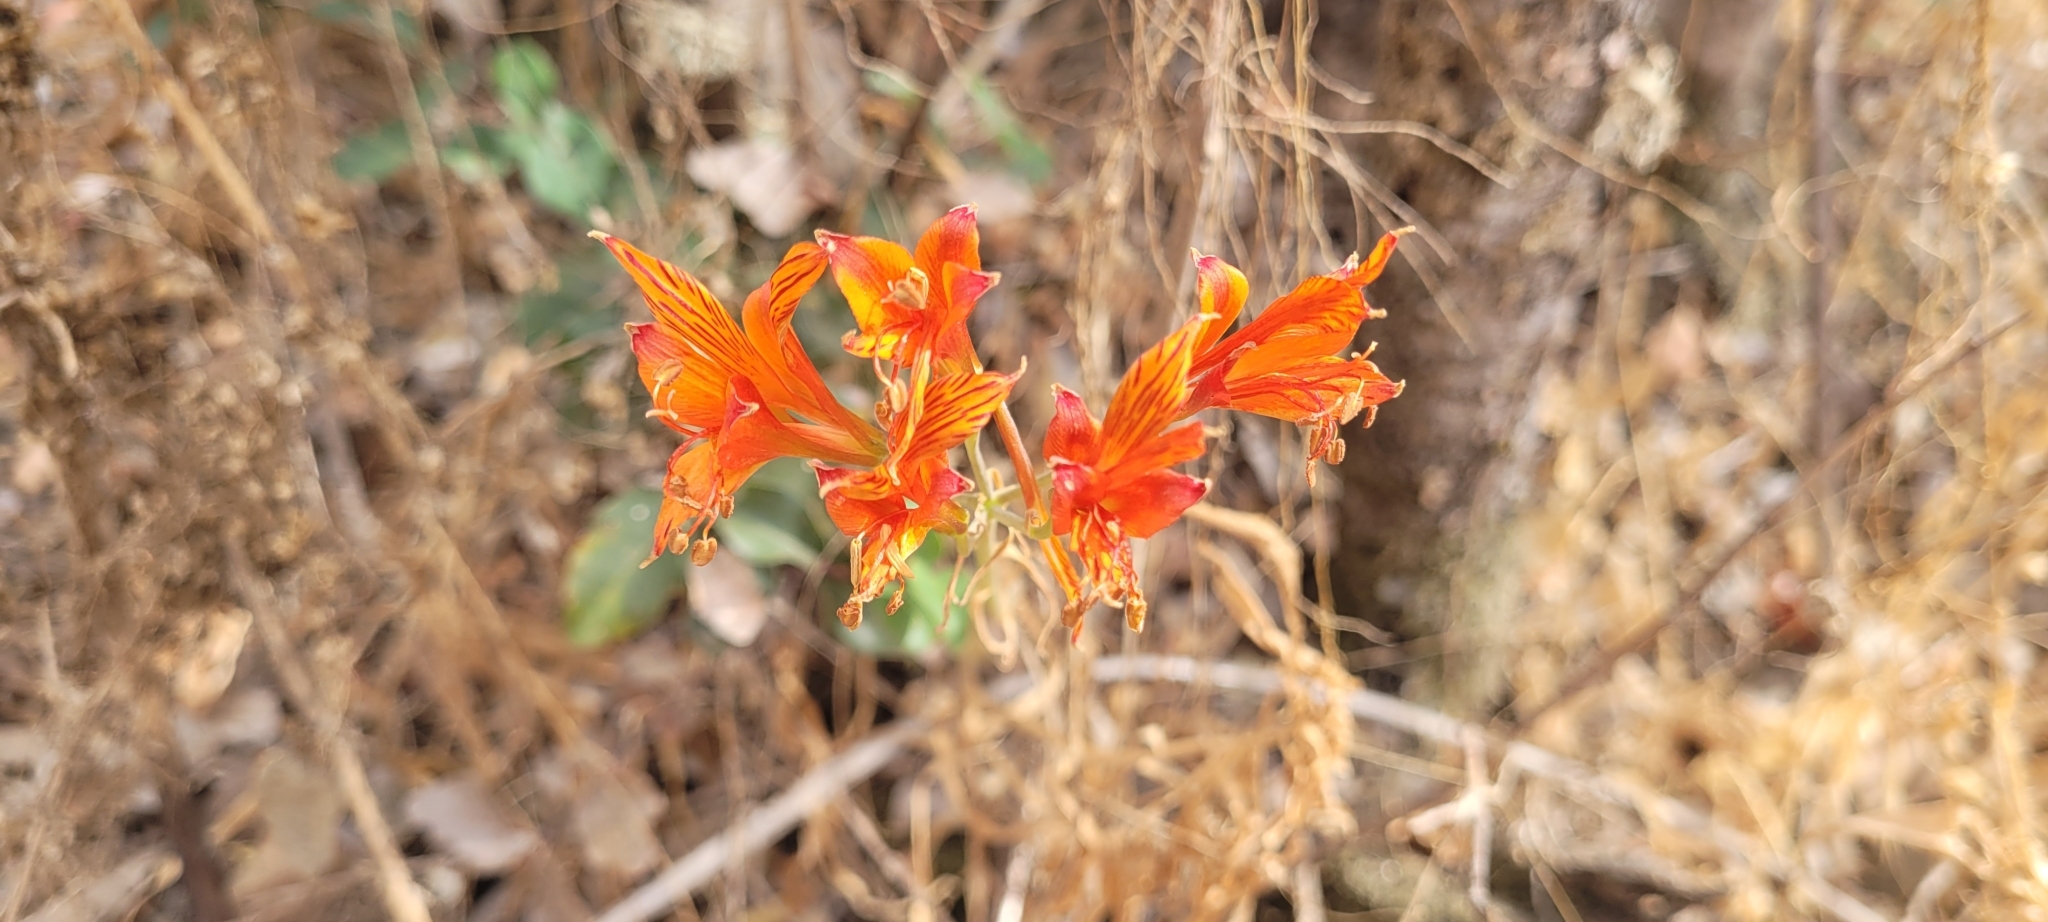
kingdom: Plantae
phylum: Tracheophyta
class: Liliopsida
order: Liliales
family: Alstroemeriaceae
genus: Alstroemeria
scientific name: Alstroemeria ligtu
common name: St. martin's-flower
